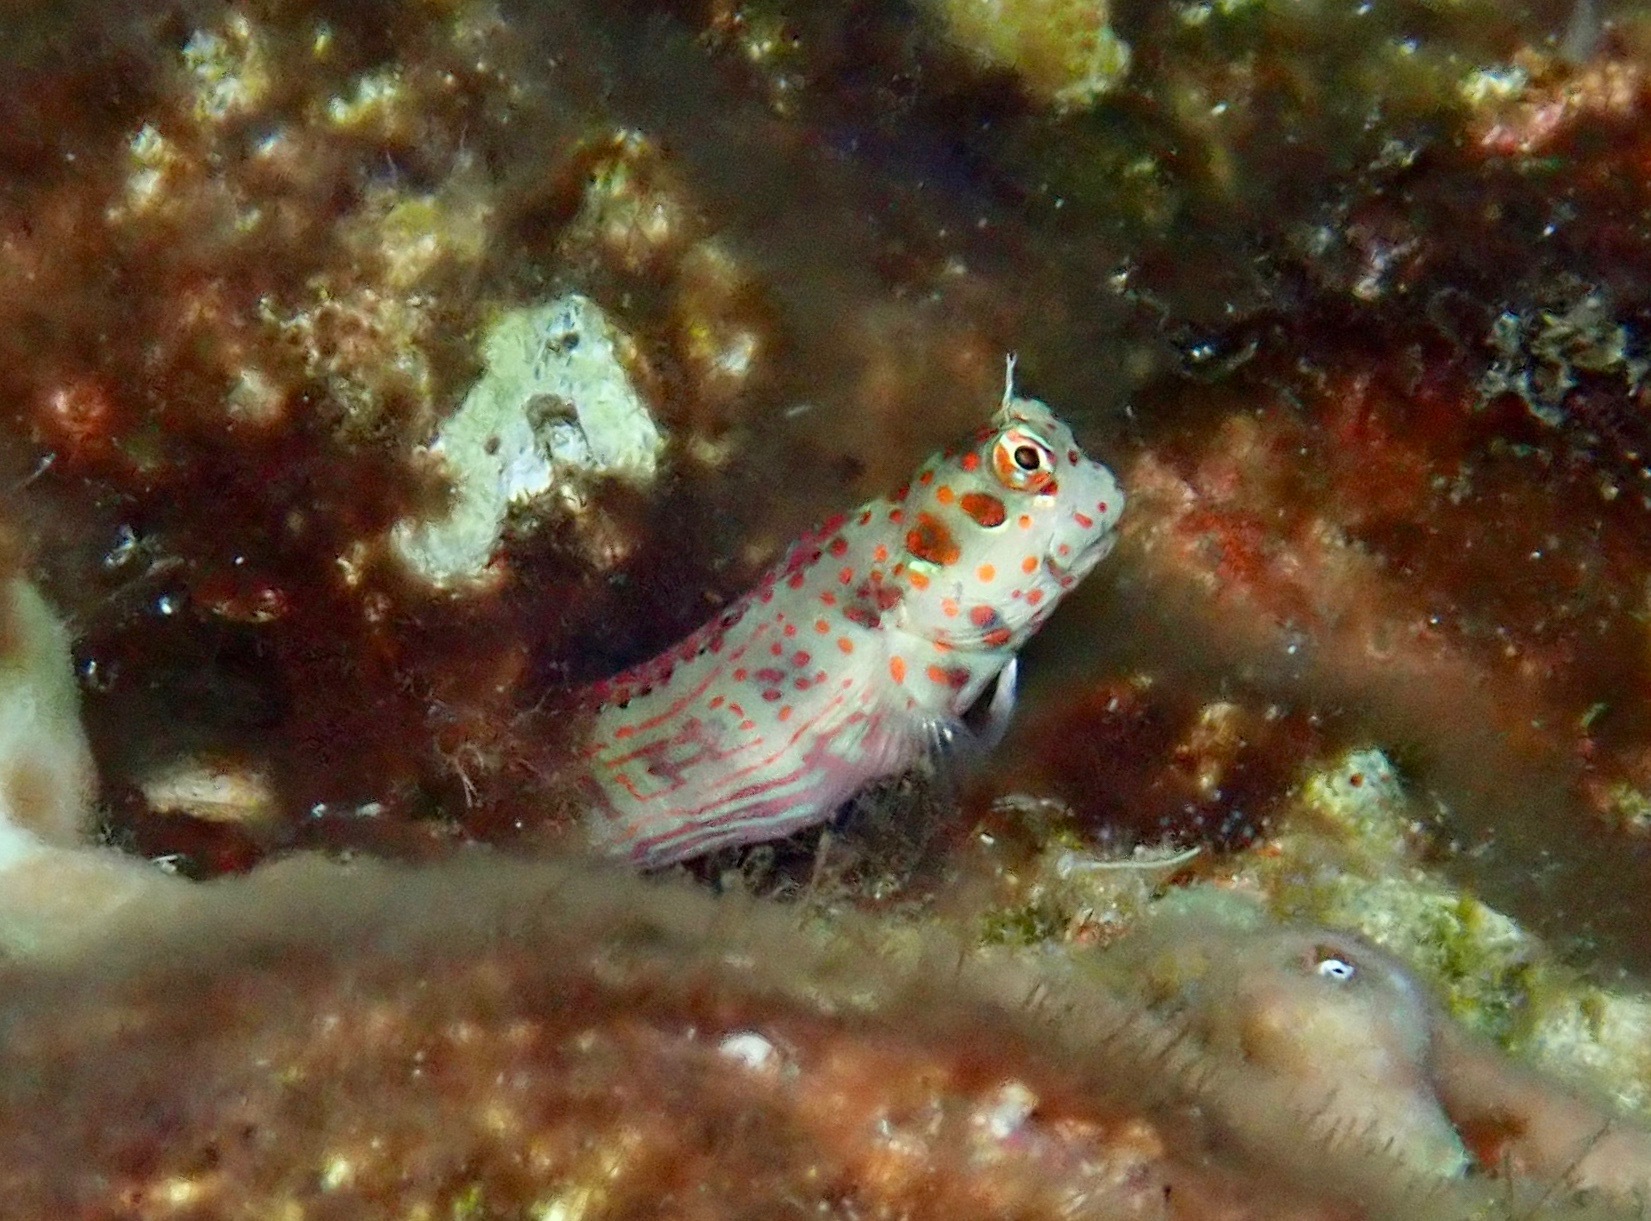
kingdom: Animalia
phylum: Chordata
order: Perciformes
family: Blenniidae
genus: Blenniella
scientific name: Blenniella chrysospilos
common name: Orange-spotted blenny
